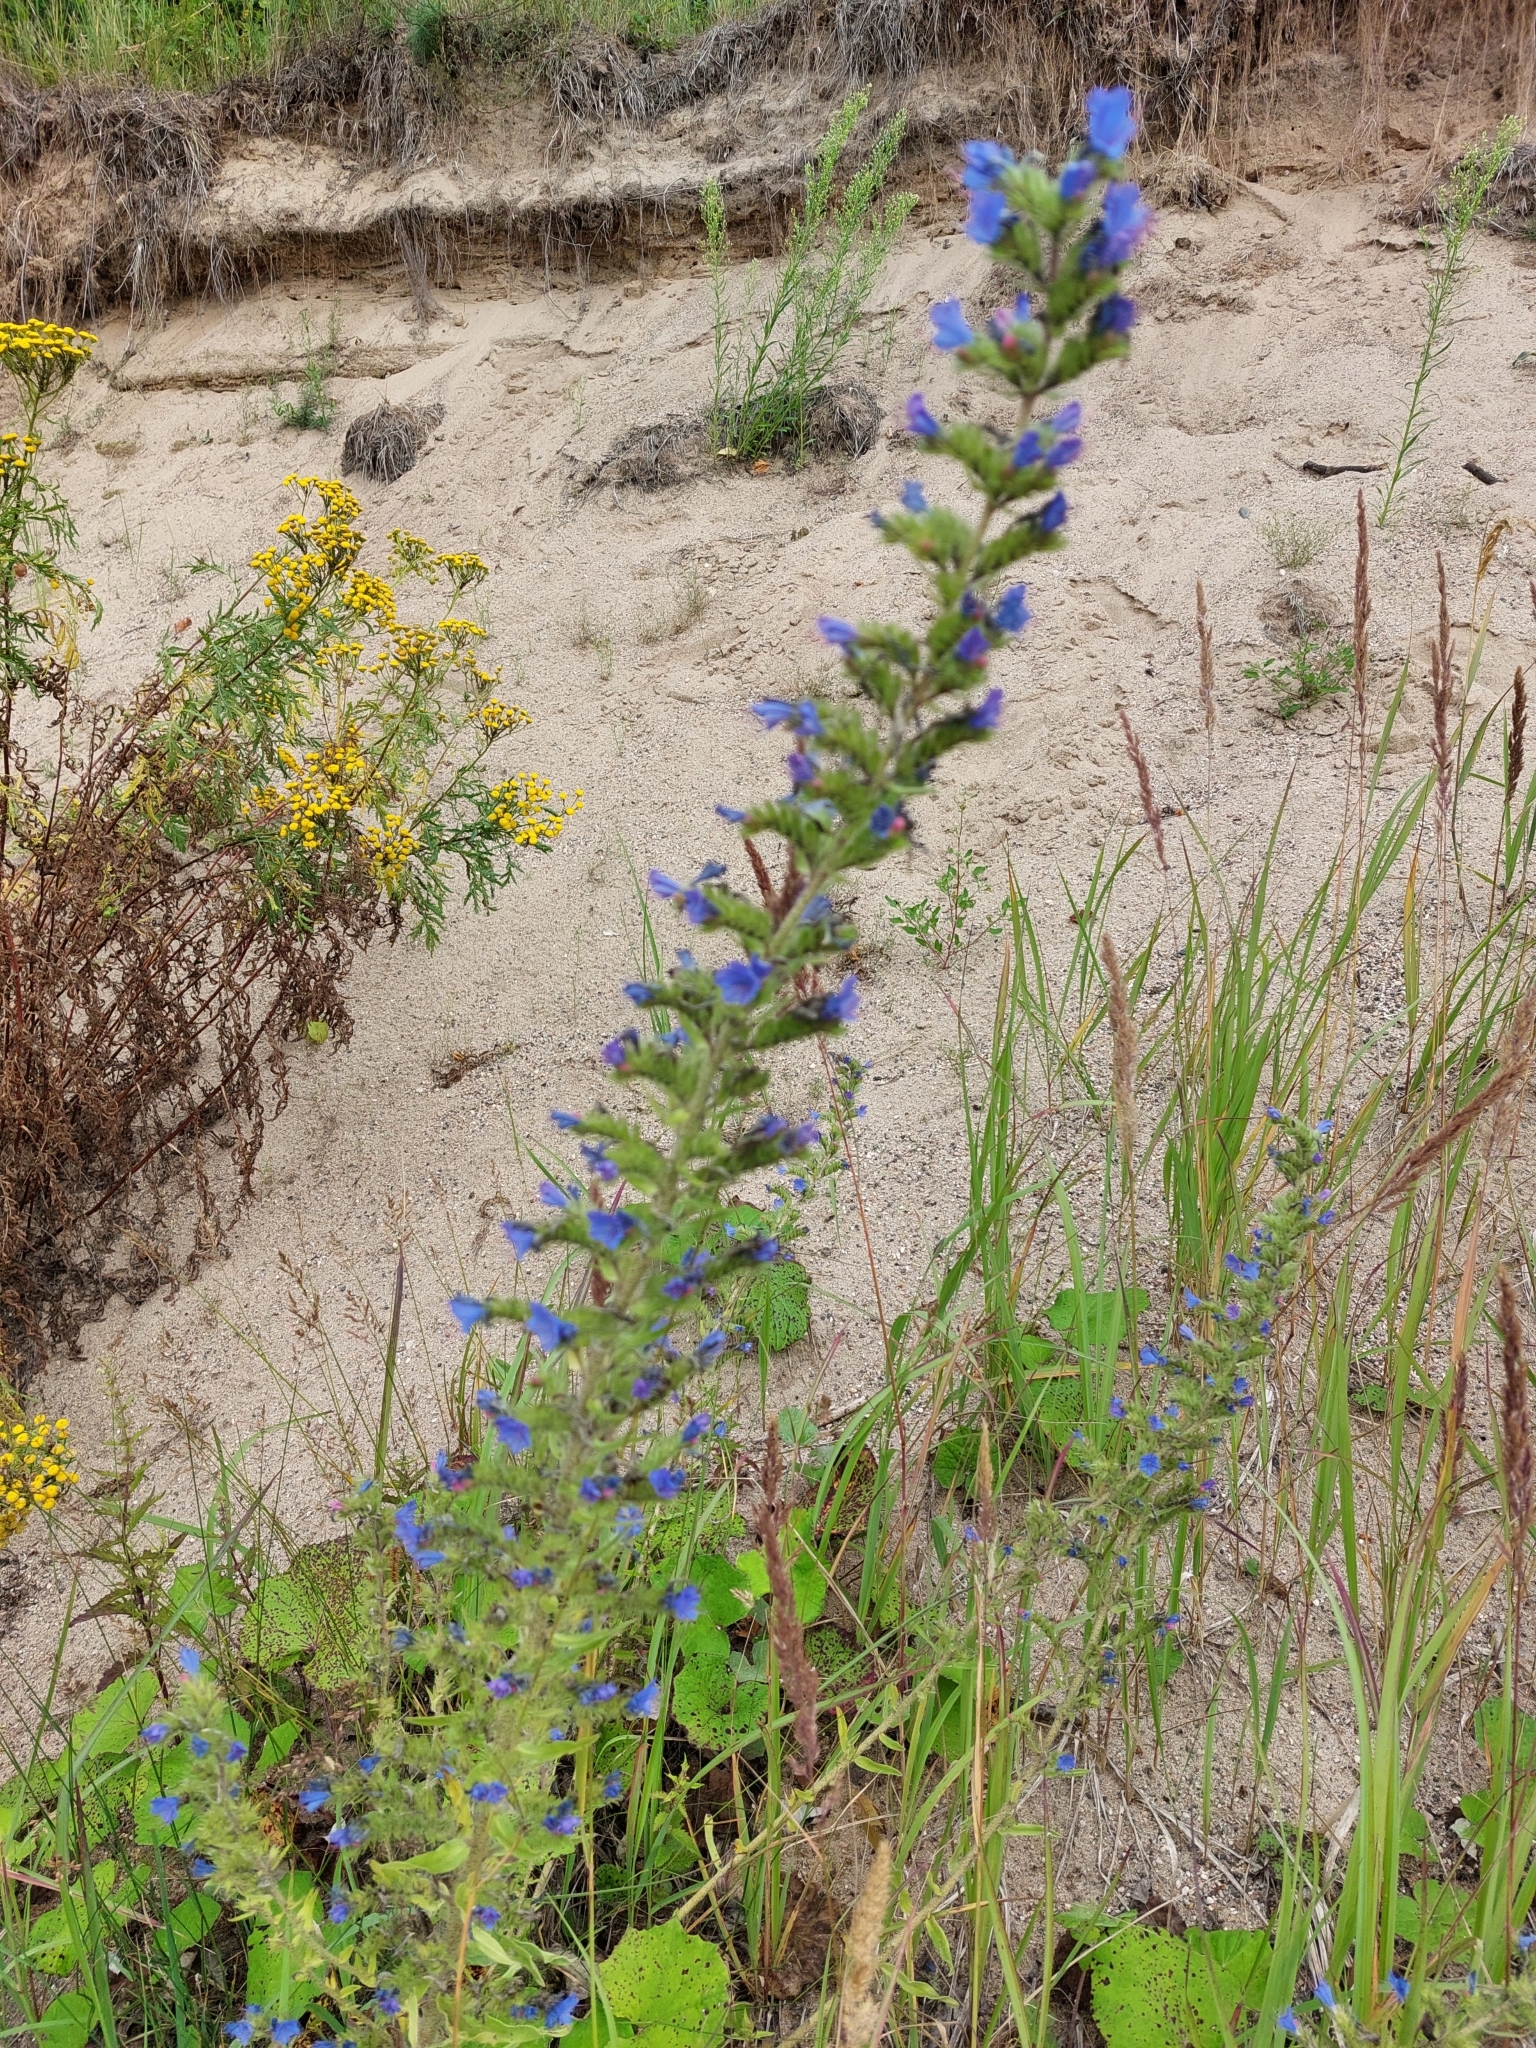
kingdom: Plantae
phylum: Tracheophyta
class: Magnoliopsida
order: Boraginales
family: Boraginaceae
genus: Echium
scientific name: Echium vulgare
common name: Common viper's bugloss
